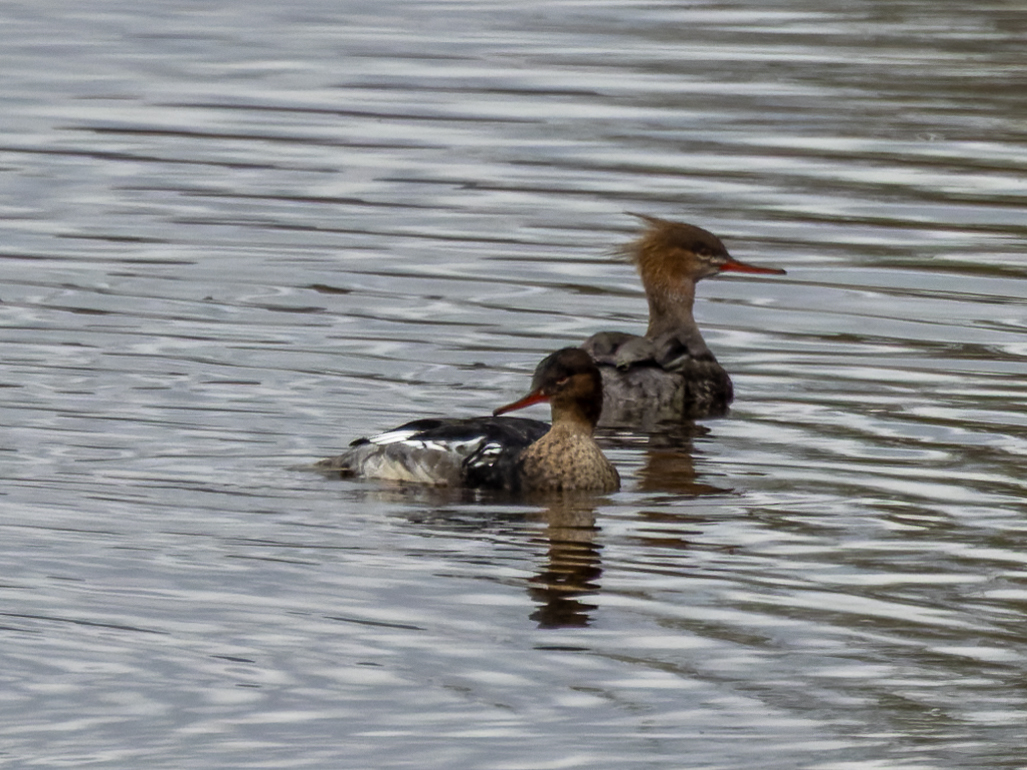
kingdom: Animalia
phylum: Chordata
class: Aves
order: Anseriformes
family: Anatidae
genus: Mergus
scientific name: Mergus serrator
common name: Red-breasted merganser
